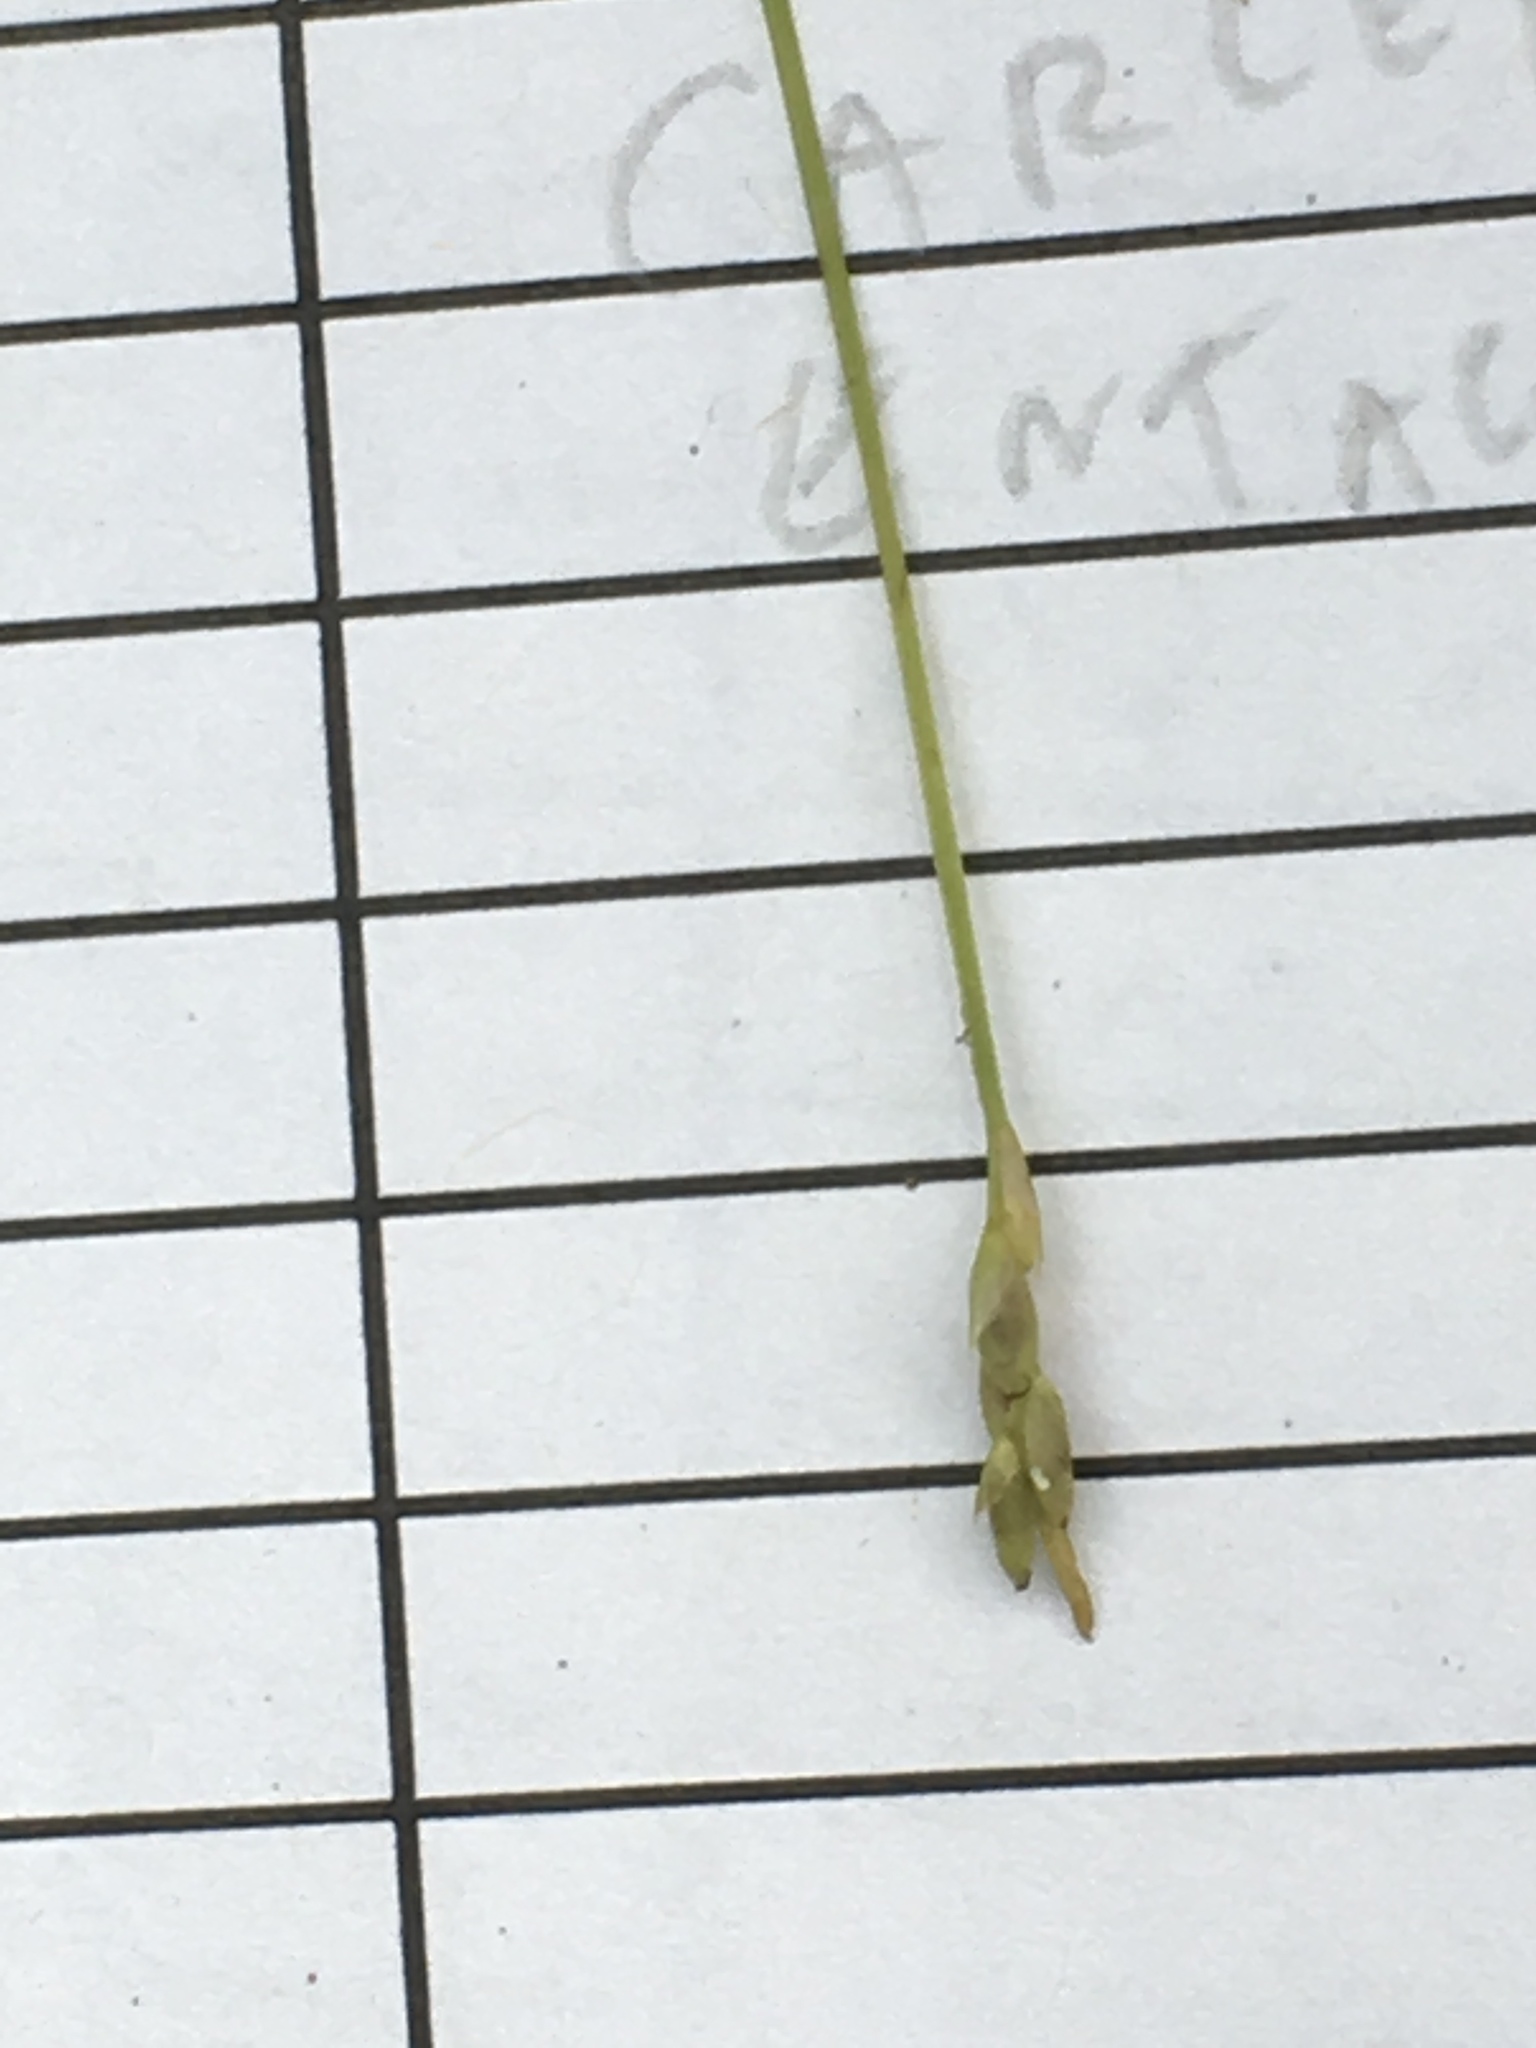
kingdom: Plantae
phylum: Tracheophyta
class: Liliopsida
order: Poales
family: Cyperaceae
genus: Carex
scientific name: Carex leptalea
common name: Bristly-stalked sedge
